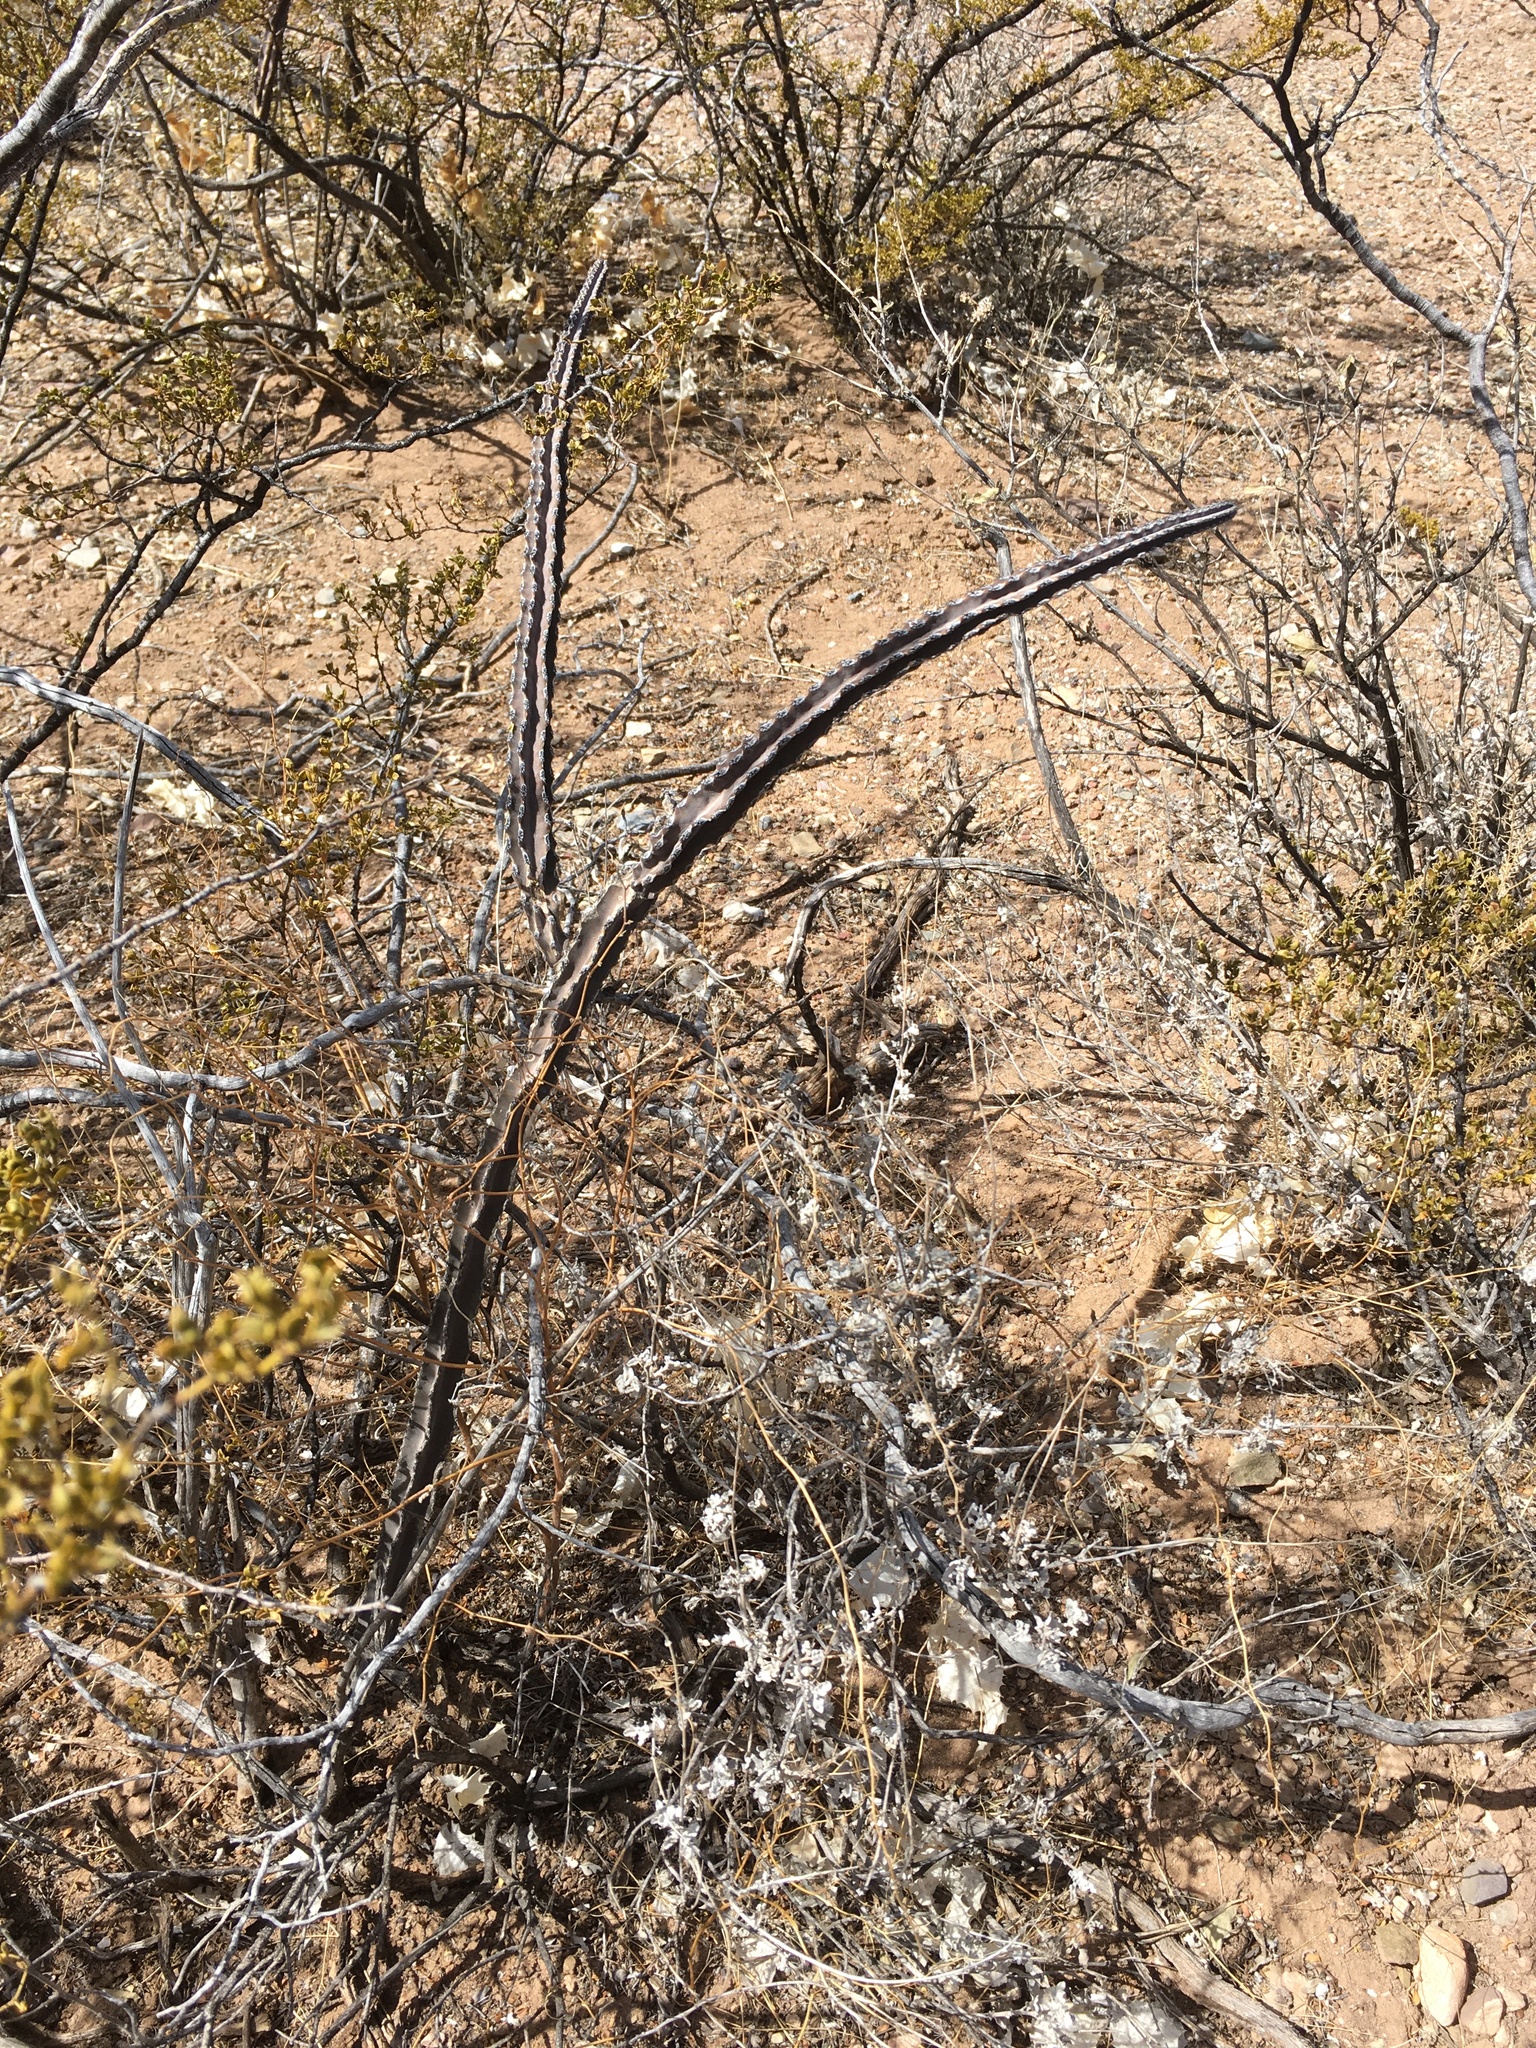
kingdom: Plantae
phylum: Tracheophyta
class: Magnoliopsida
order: Caryophyllales
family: Cactaceae
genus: Peniocereus
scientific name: Peniocereus greggii
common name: Desert night-blooming cereus
